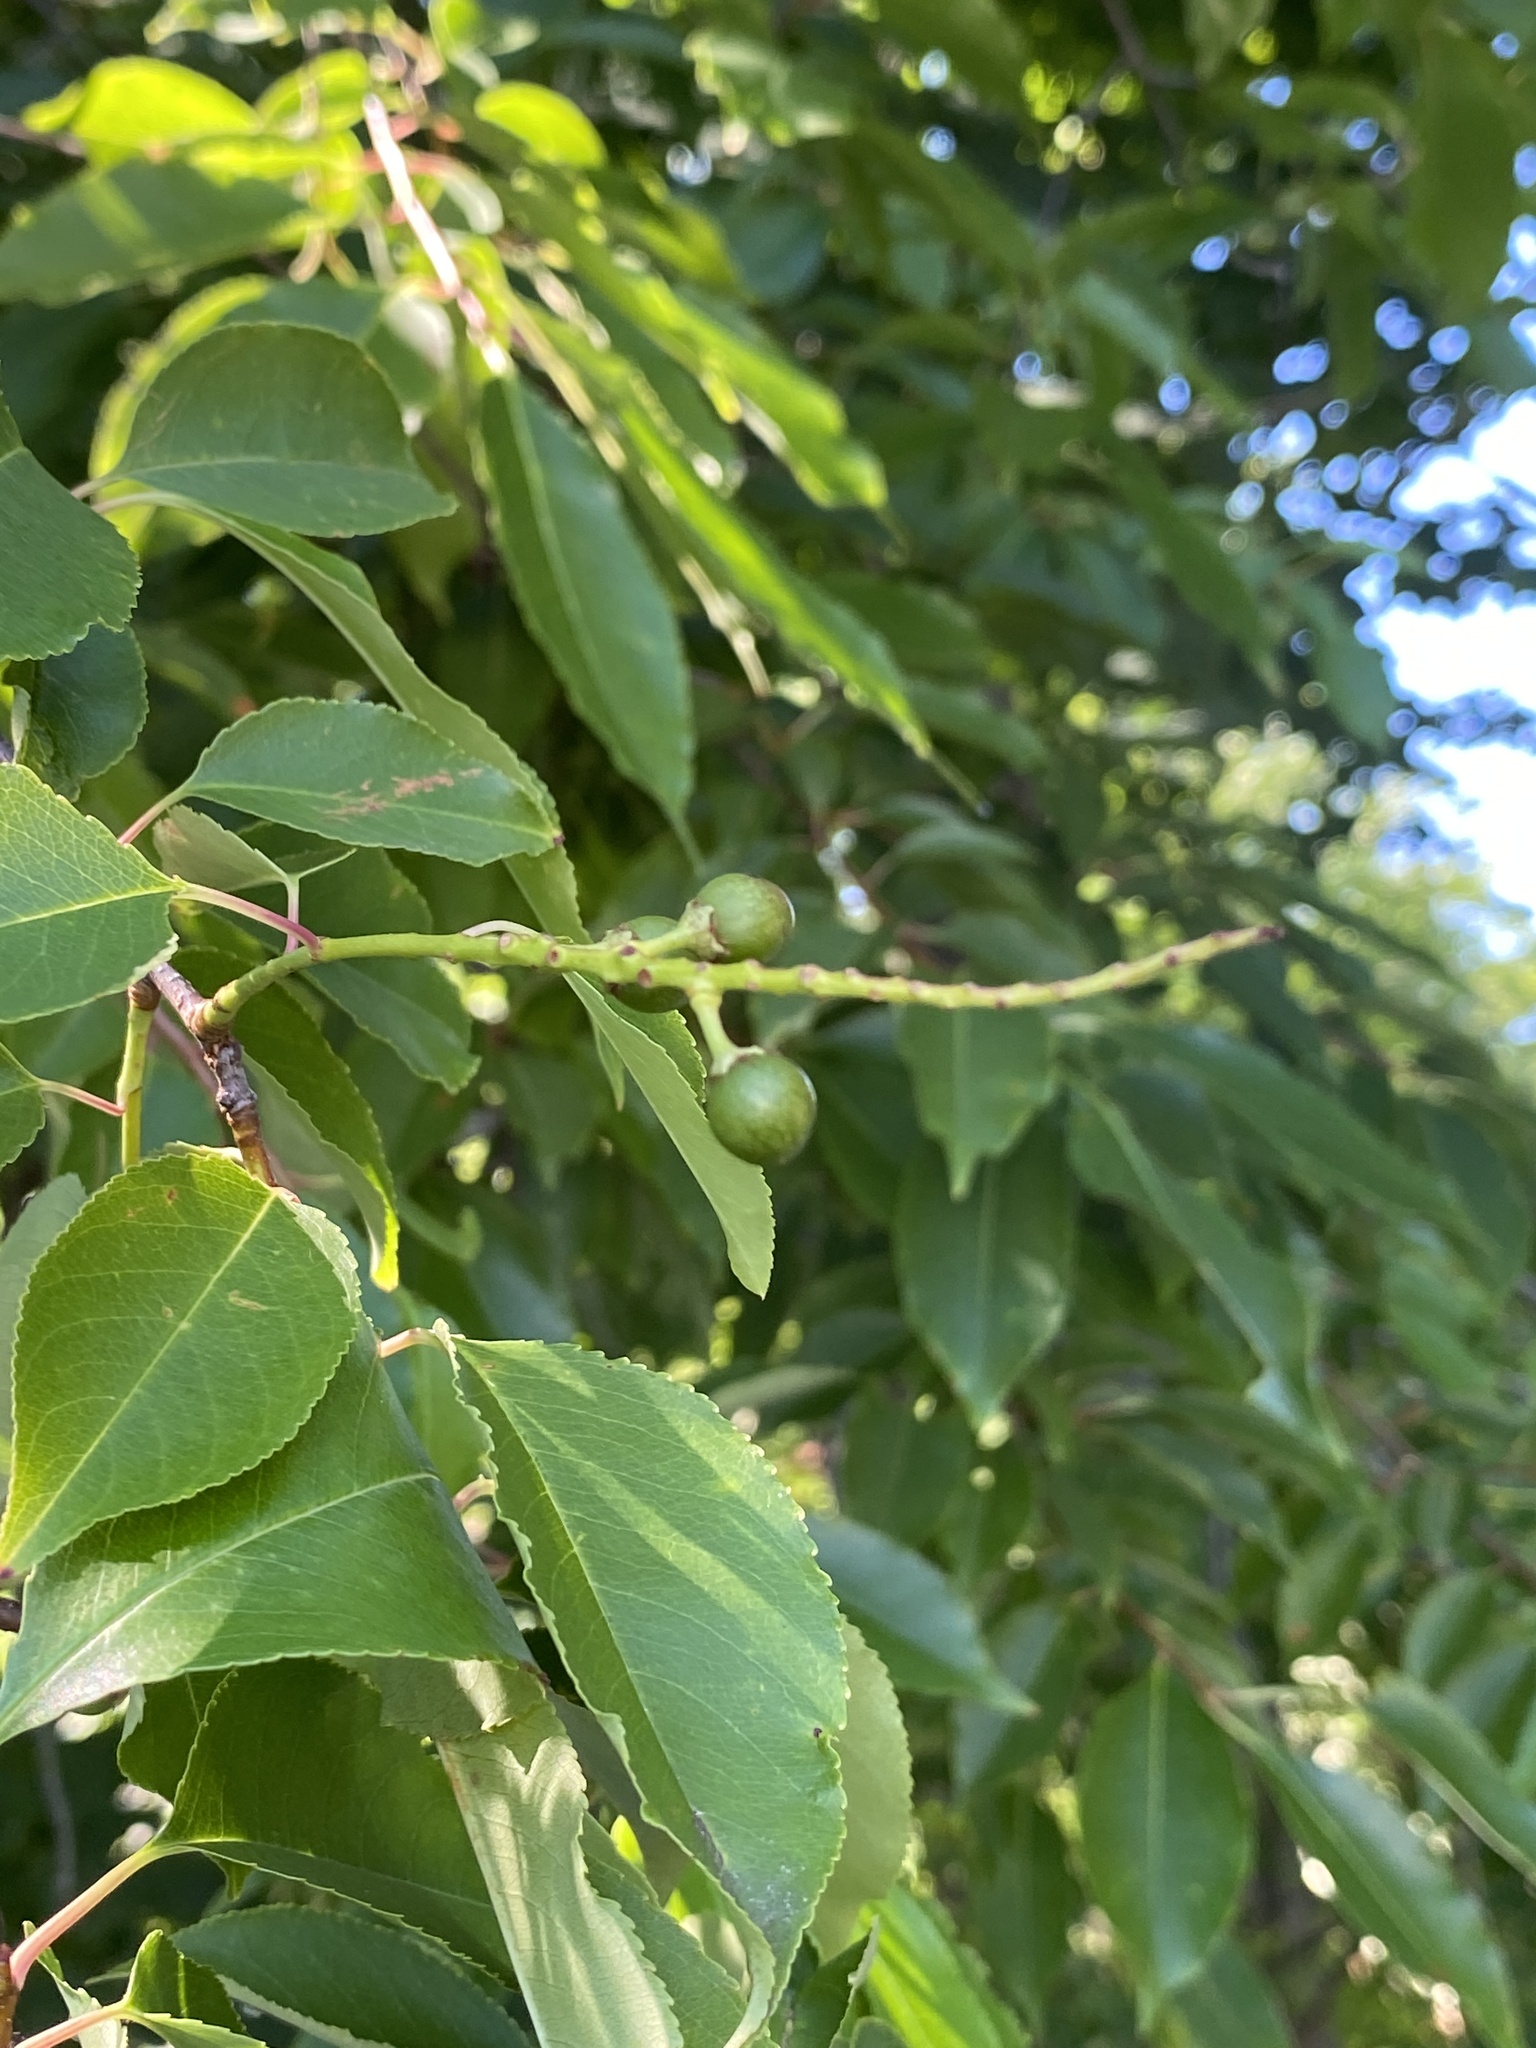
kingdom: Plantae
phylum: Tracheophyta
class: Magnoliopsida
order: Rosales
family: Rosaceae
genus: Prunus
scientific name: Prunus serotina
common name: Black cherry
